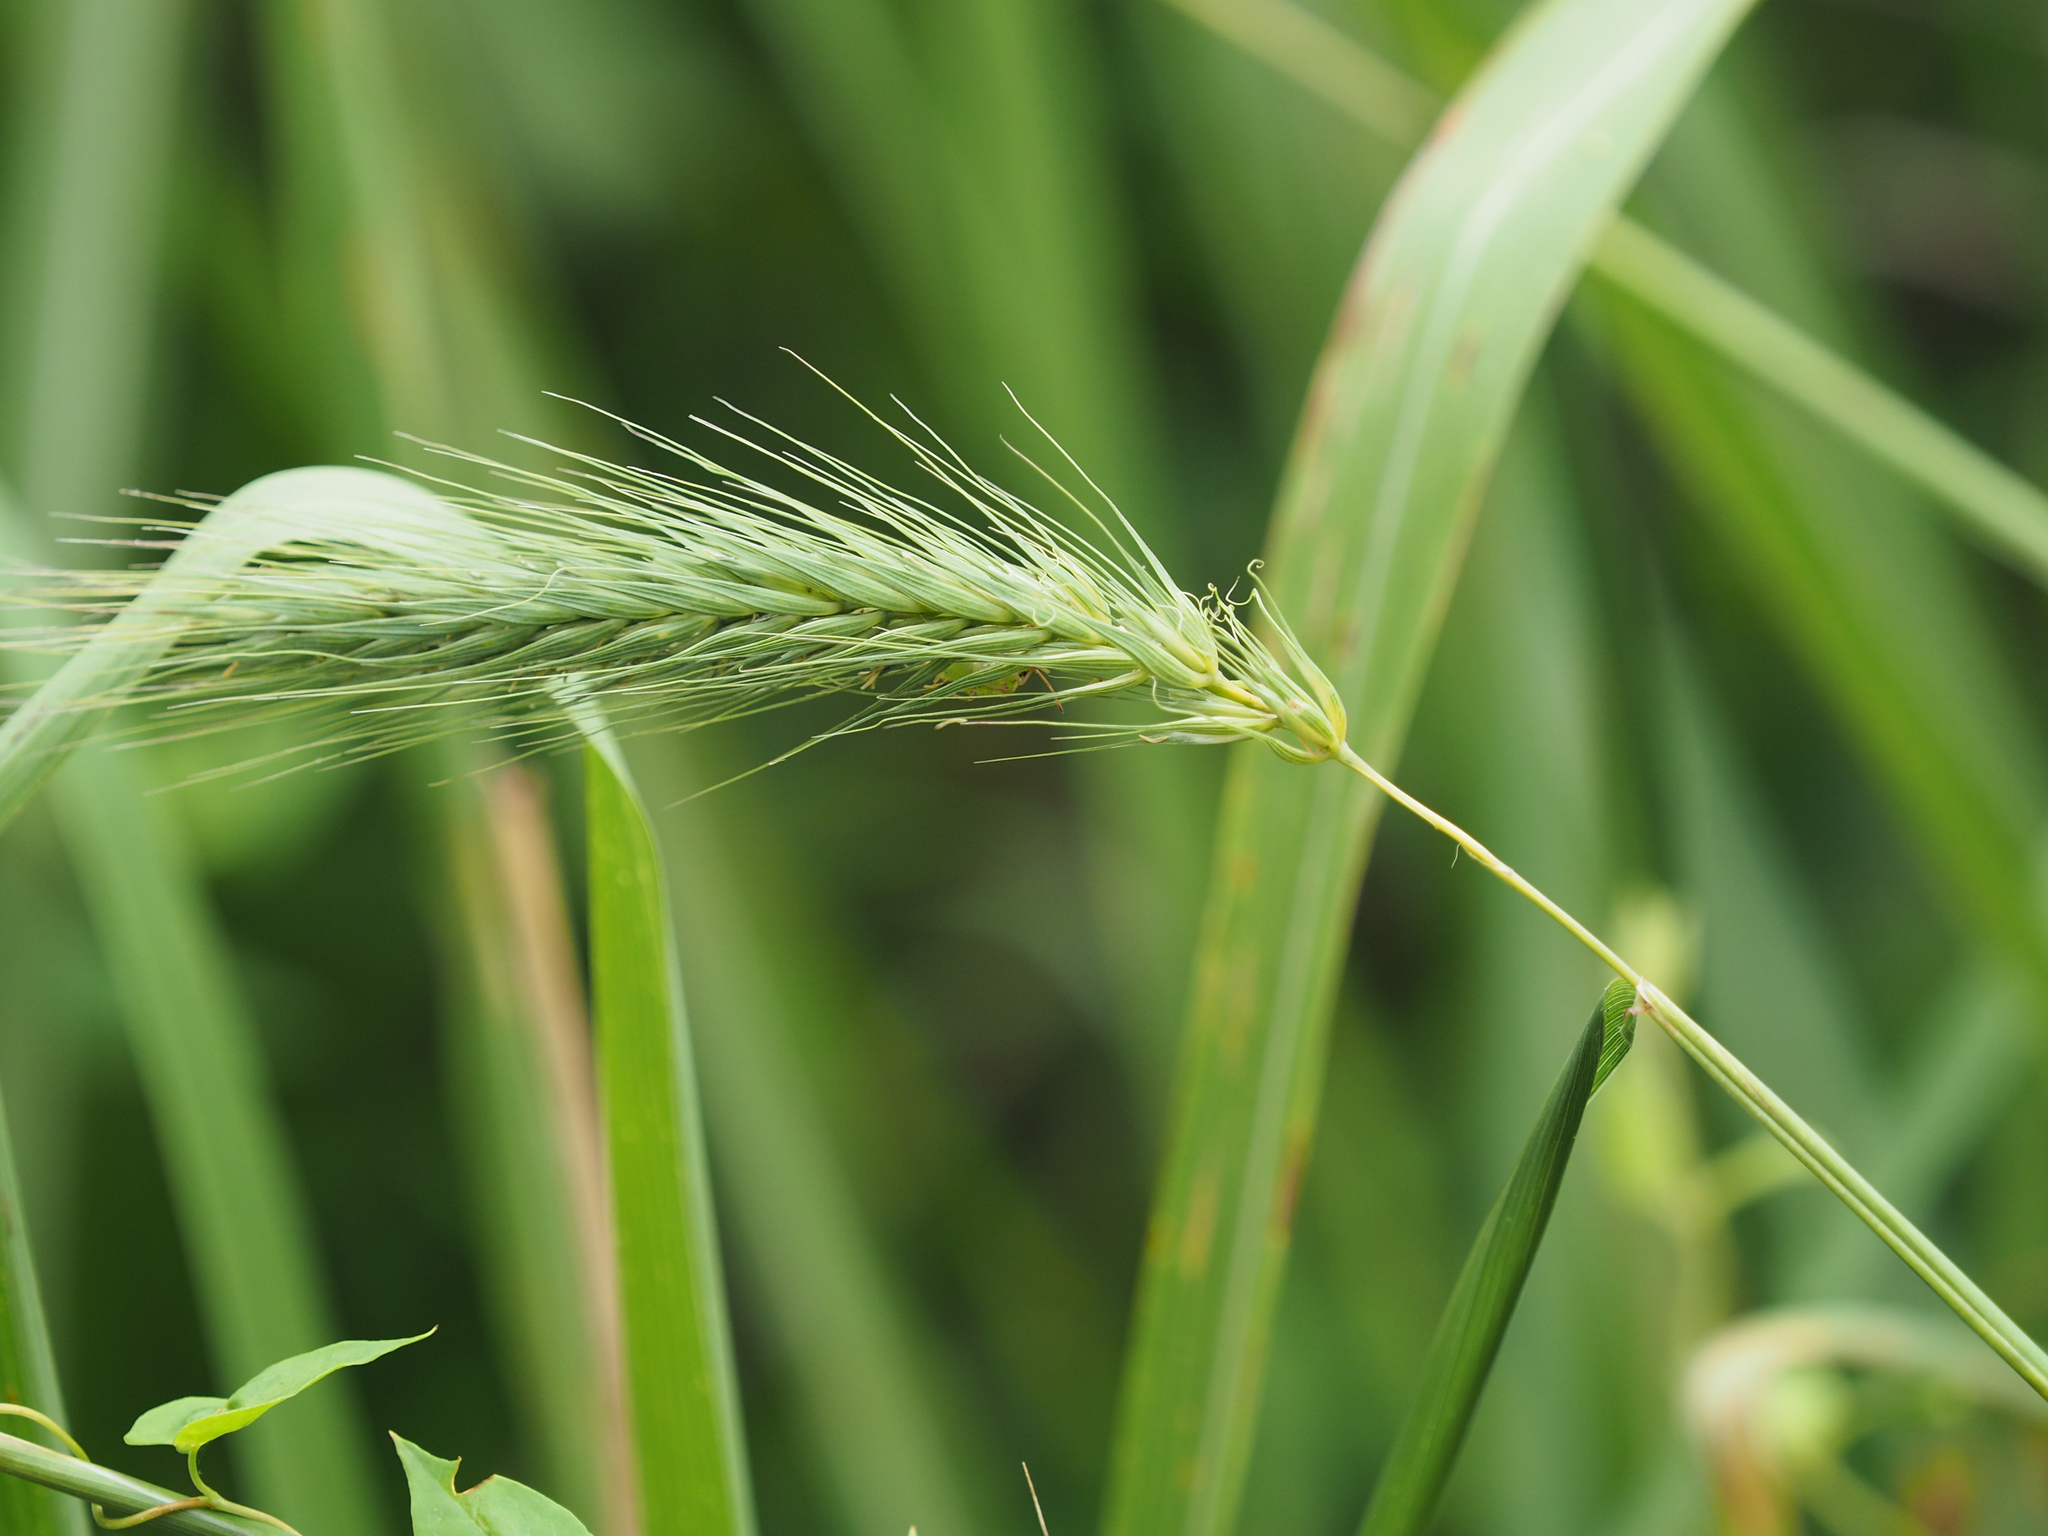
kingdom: Plantae
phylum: Tracheophyta
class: Liliopsida
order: Poales
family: Poaceae
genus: Elymus
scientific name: Elymus virginicus
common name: Common eastern wildrye
